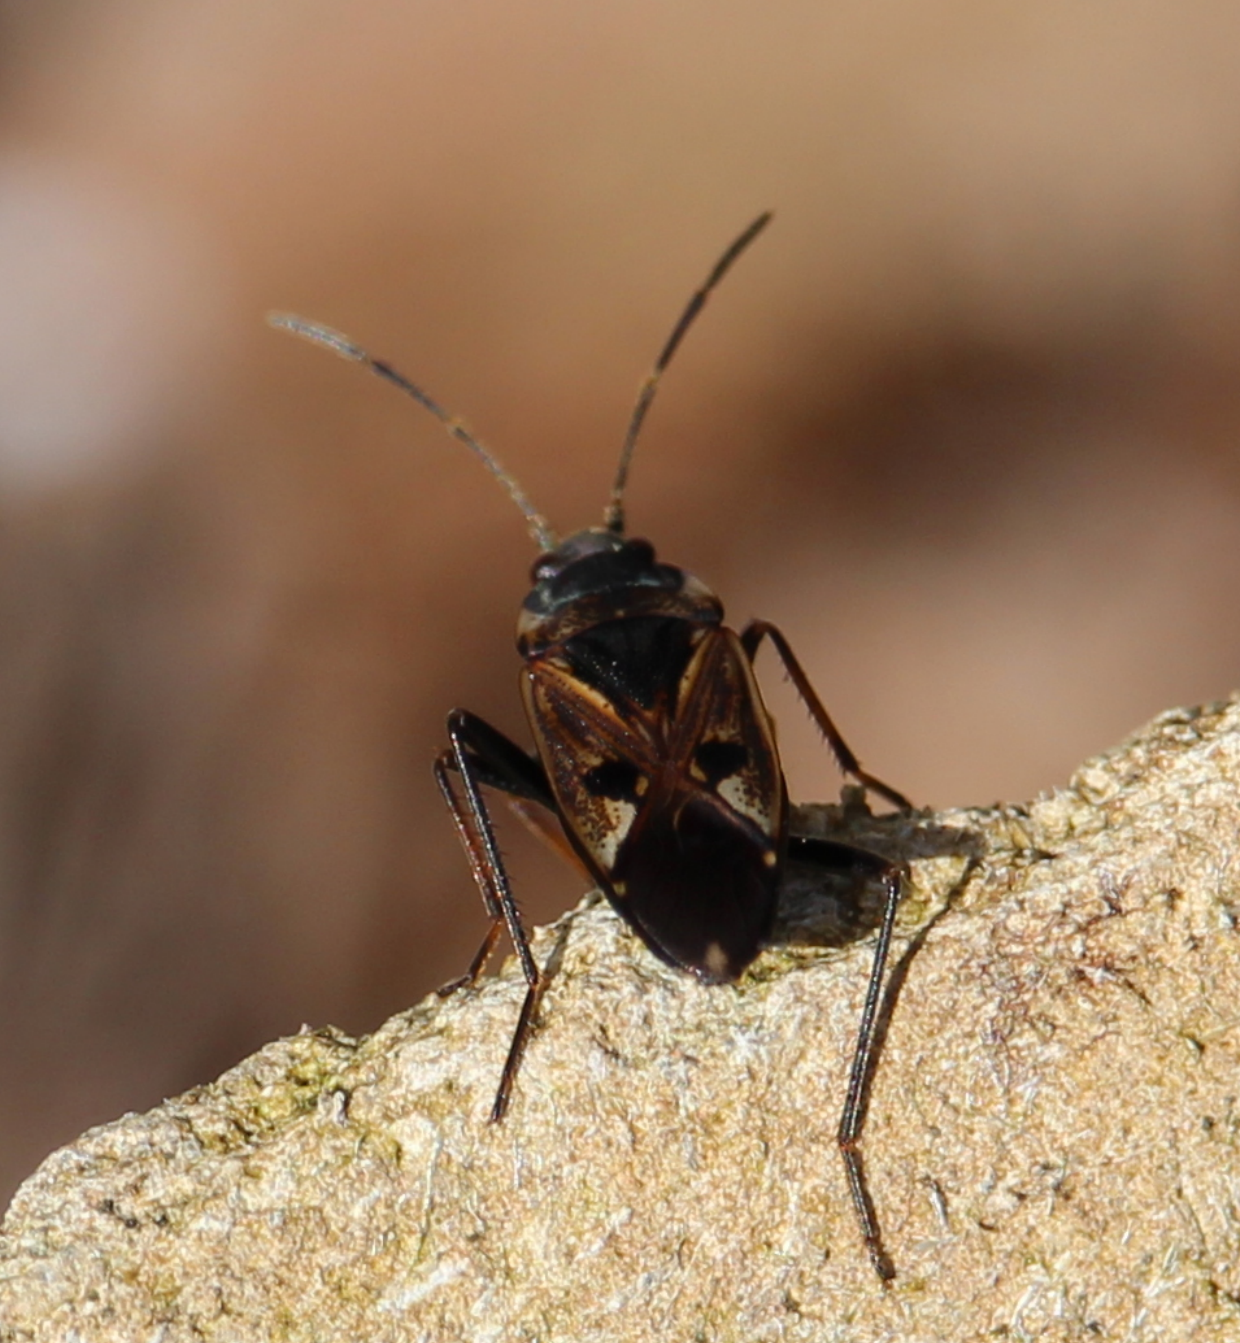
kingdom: Animalia
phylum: Arthropoda
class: Insecta
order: Hemiptera
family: Rhyparochromidae
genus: Rhyparochromus
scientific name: Rhyparochromus vulgaris
